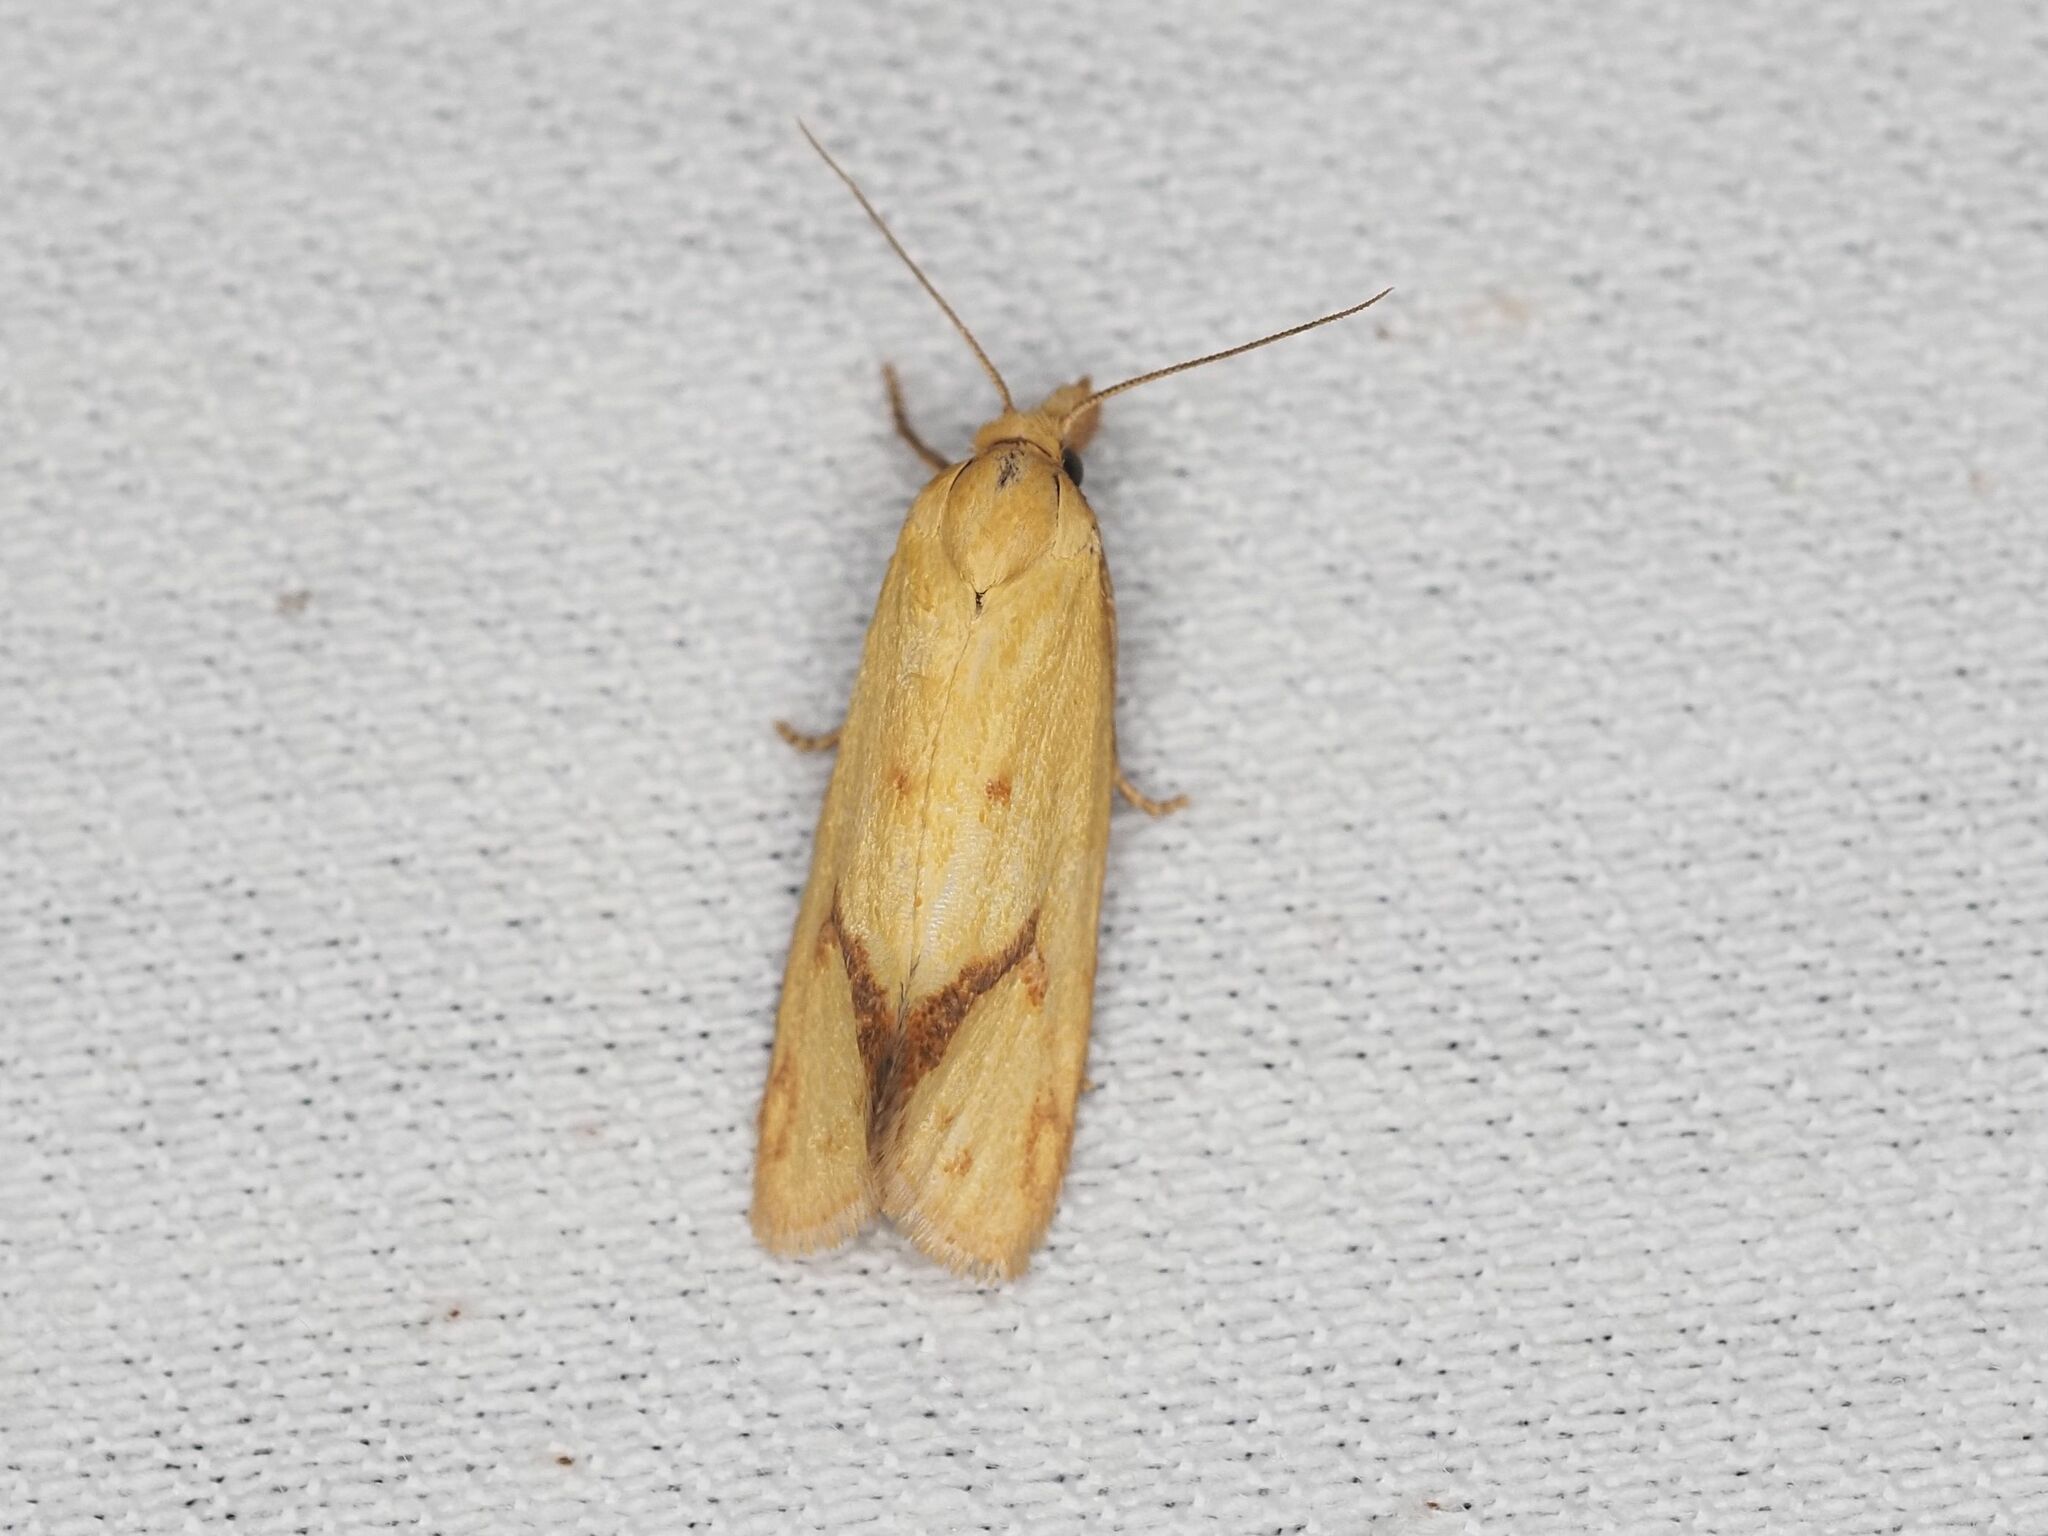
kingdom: Animalia
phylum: Arthropoda
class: Insecta
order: Lepidoptera
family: Tortricidae
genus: Agapeta
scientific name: Agapeta hamana
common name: Common yellow conch
